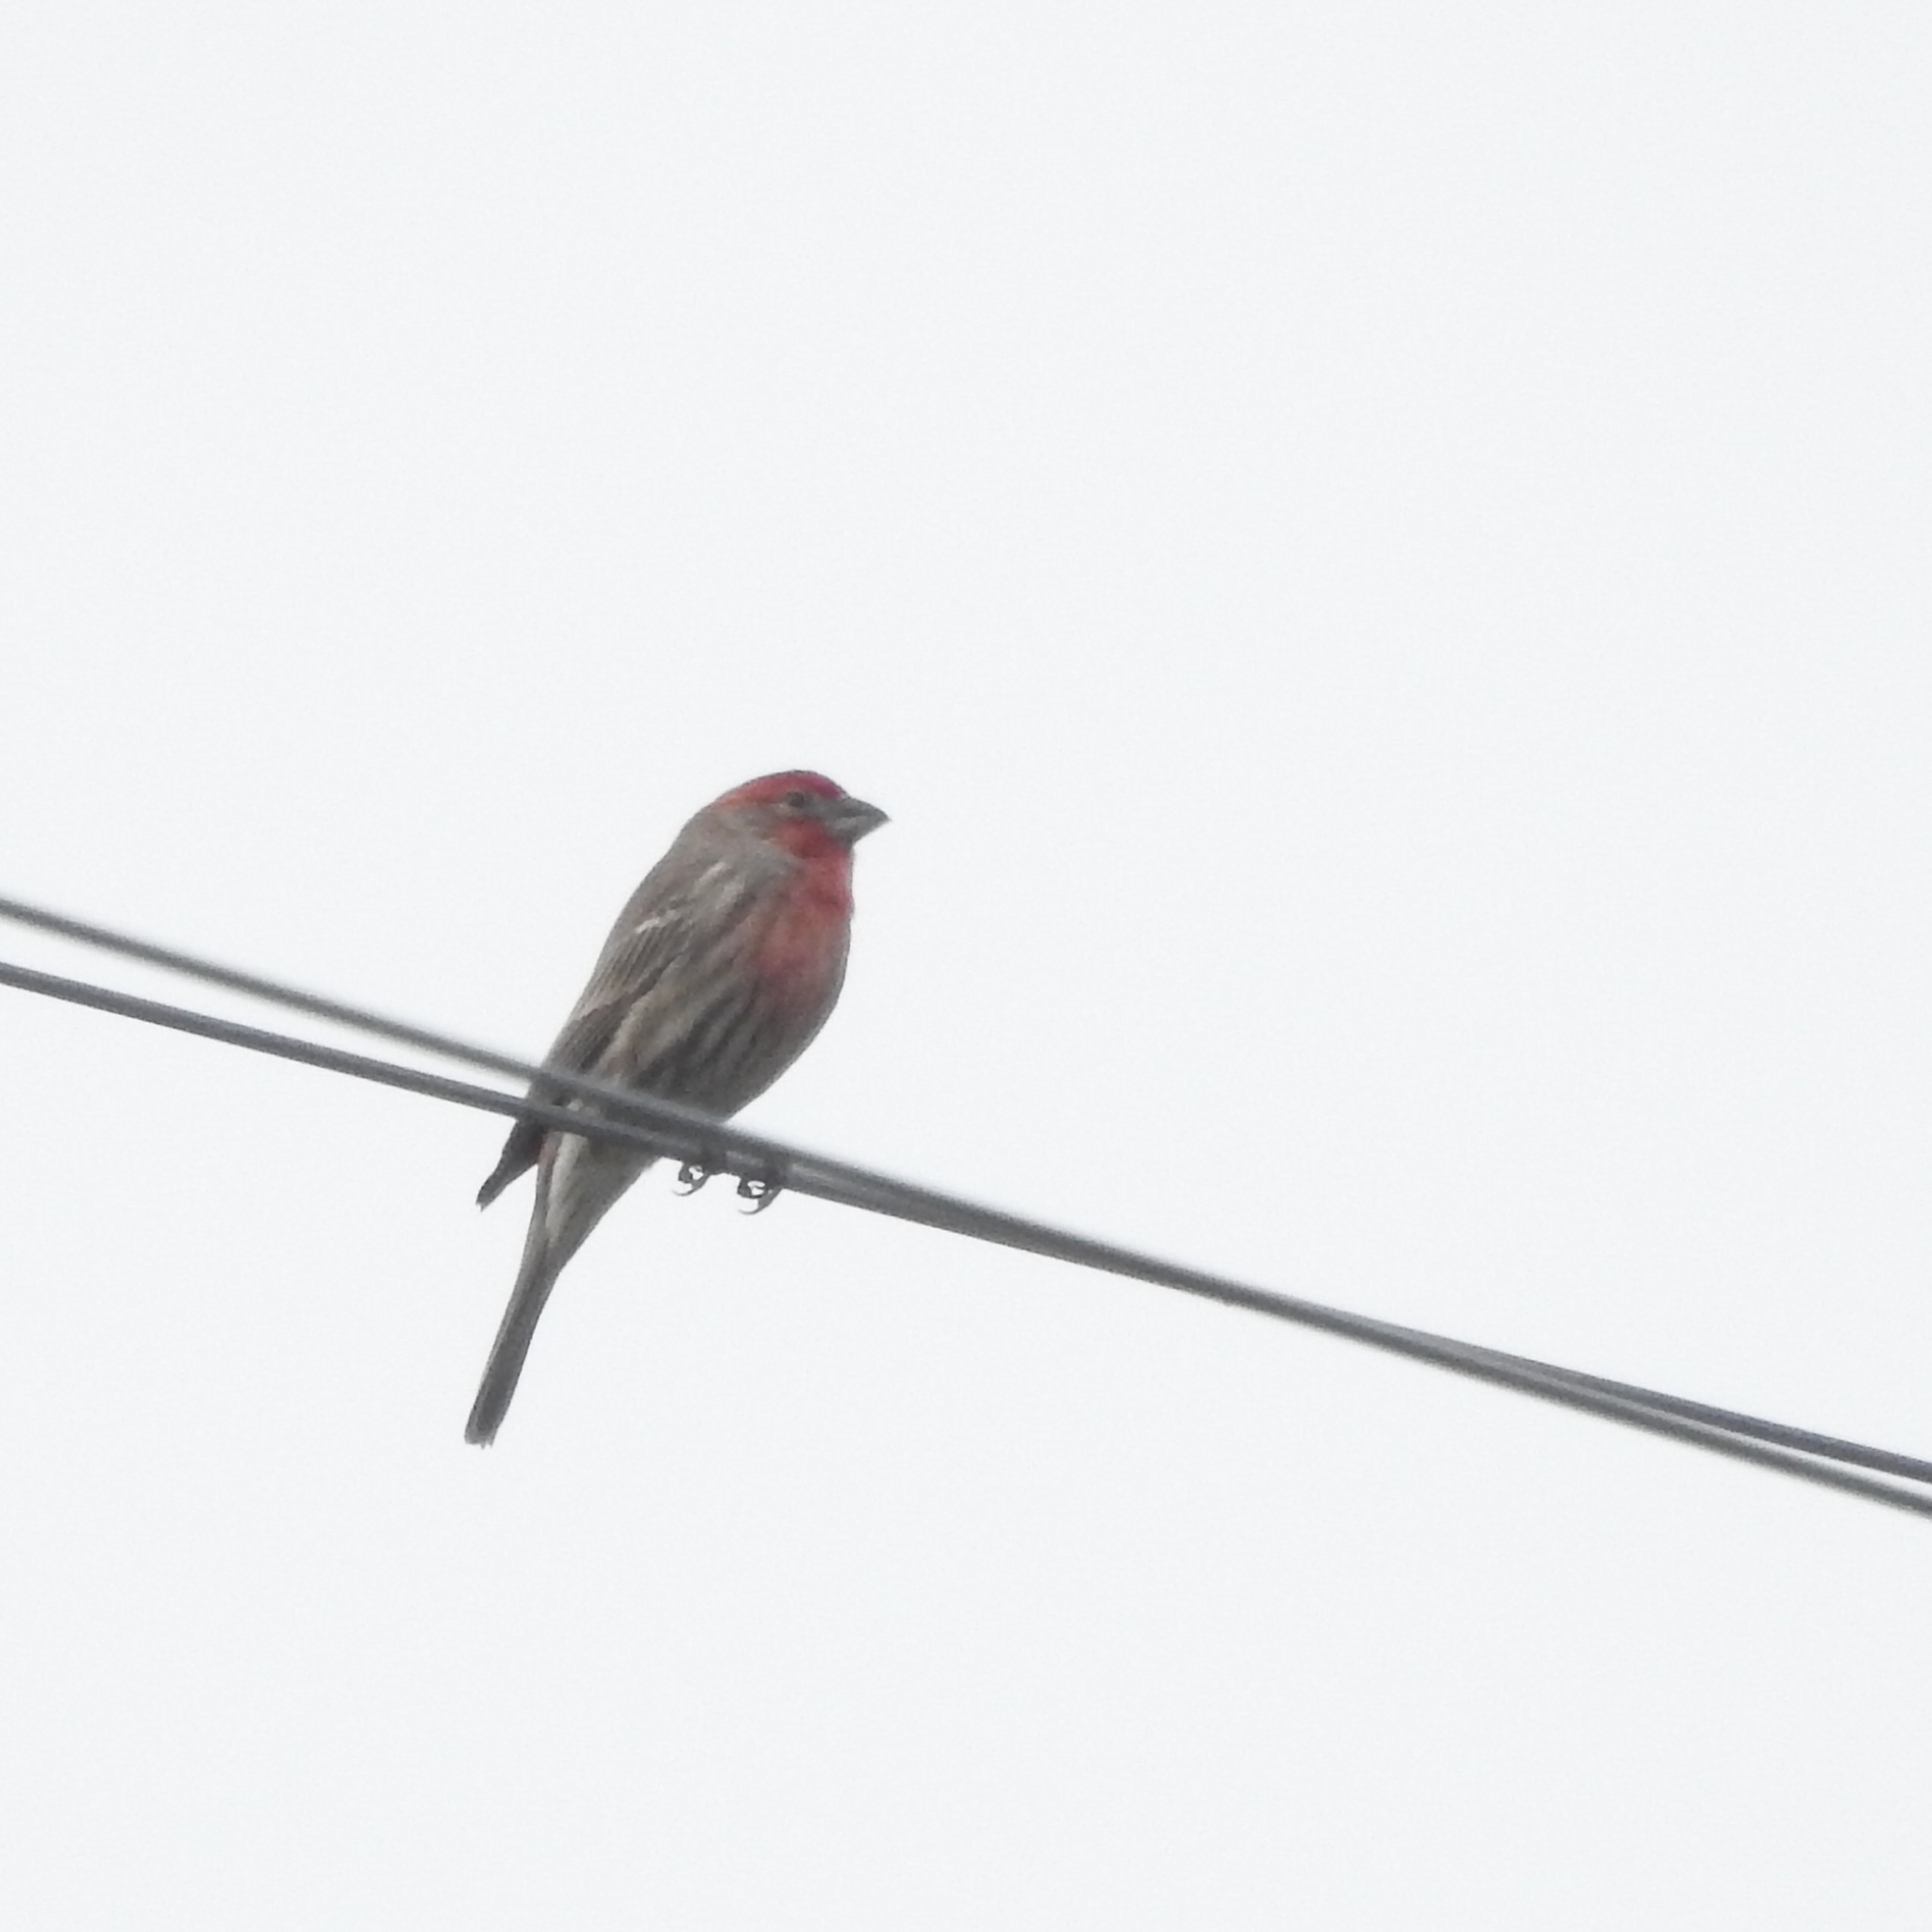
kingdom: Animalia
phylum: Chordata
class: Aves
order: Passeriformes
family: Fringillidae
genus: Haemorhous
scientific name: Haemorhous mexicanus
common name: House finch
